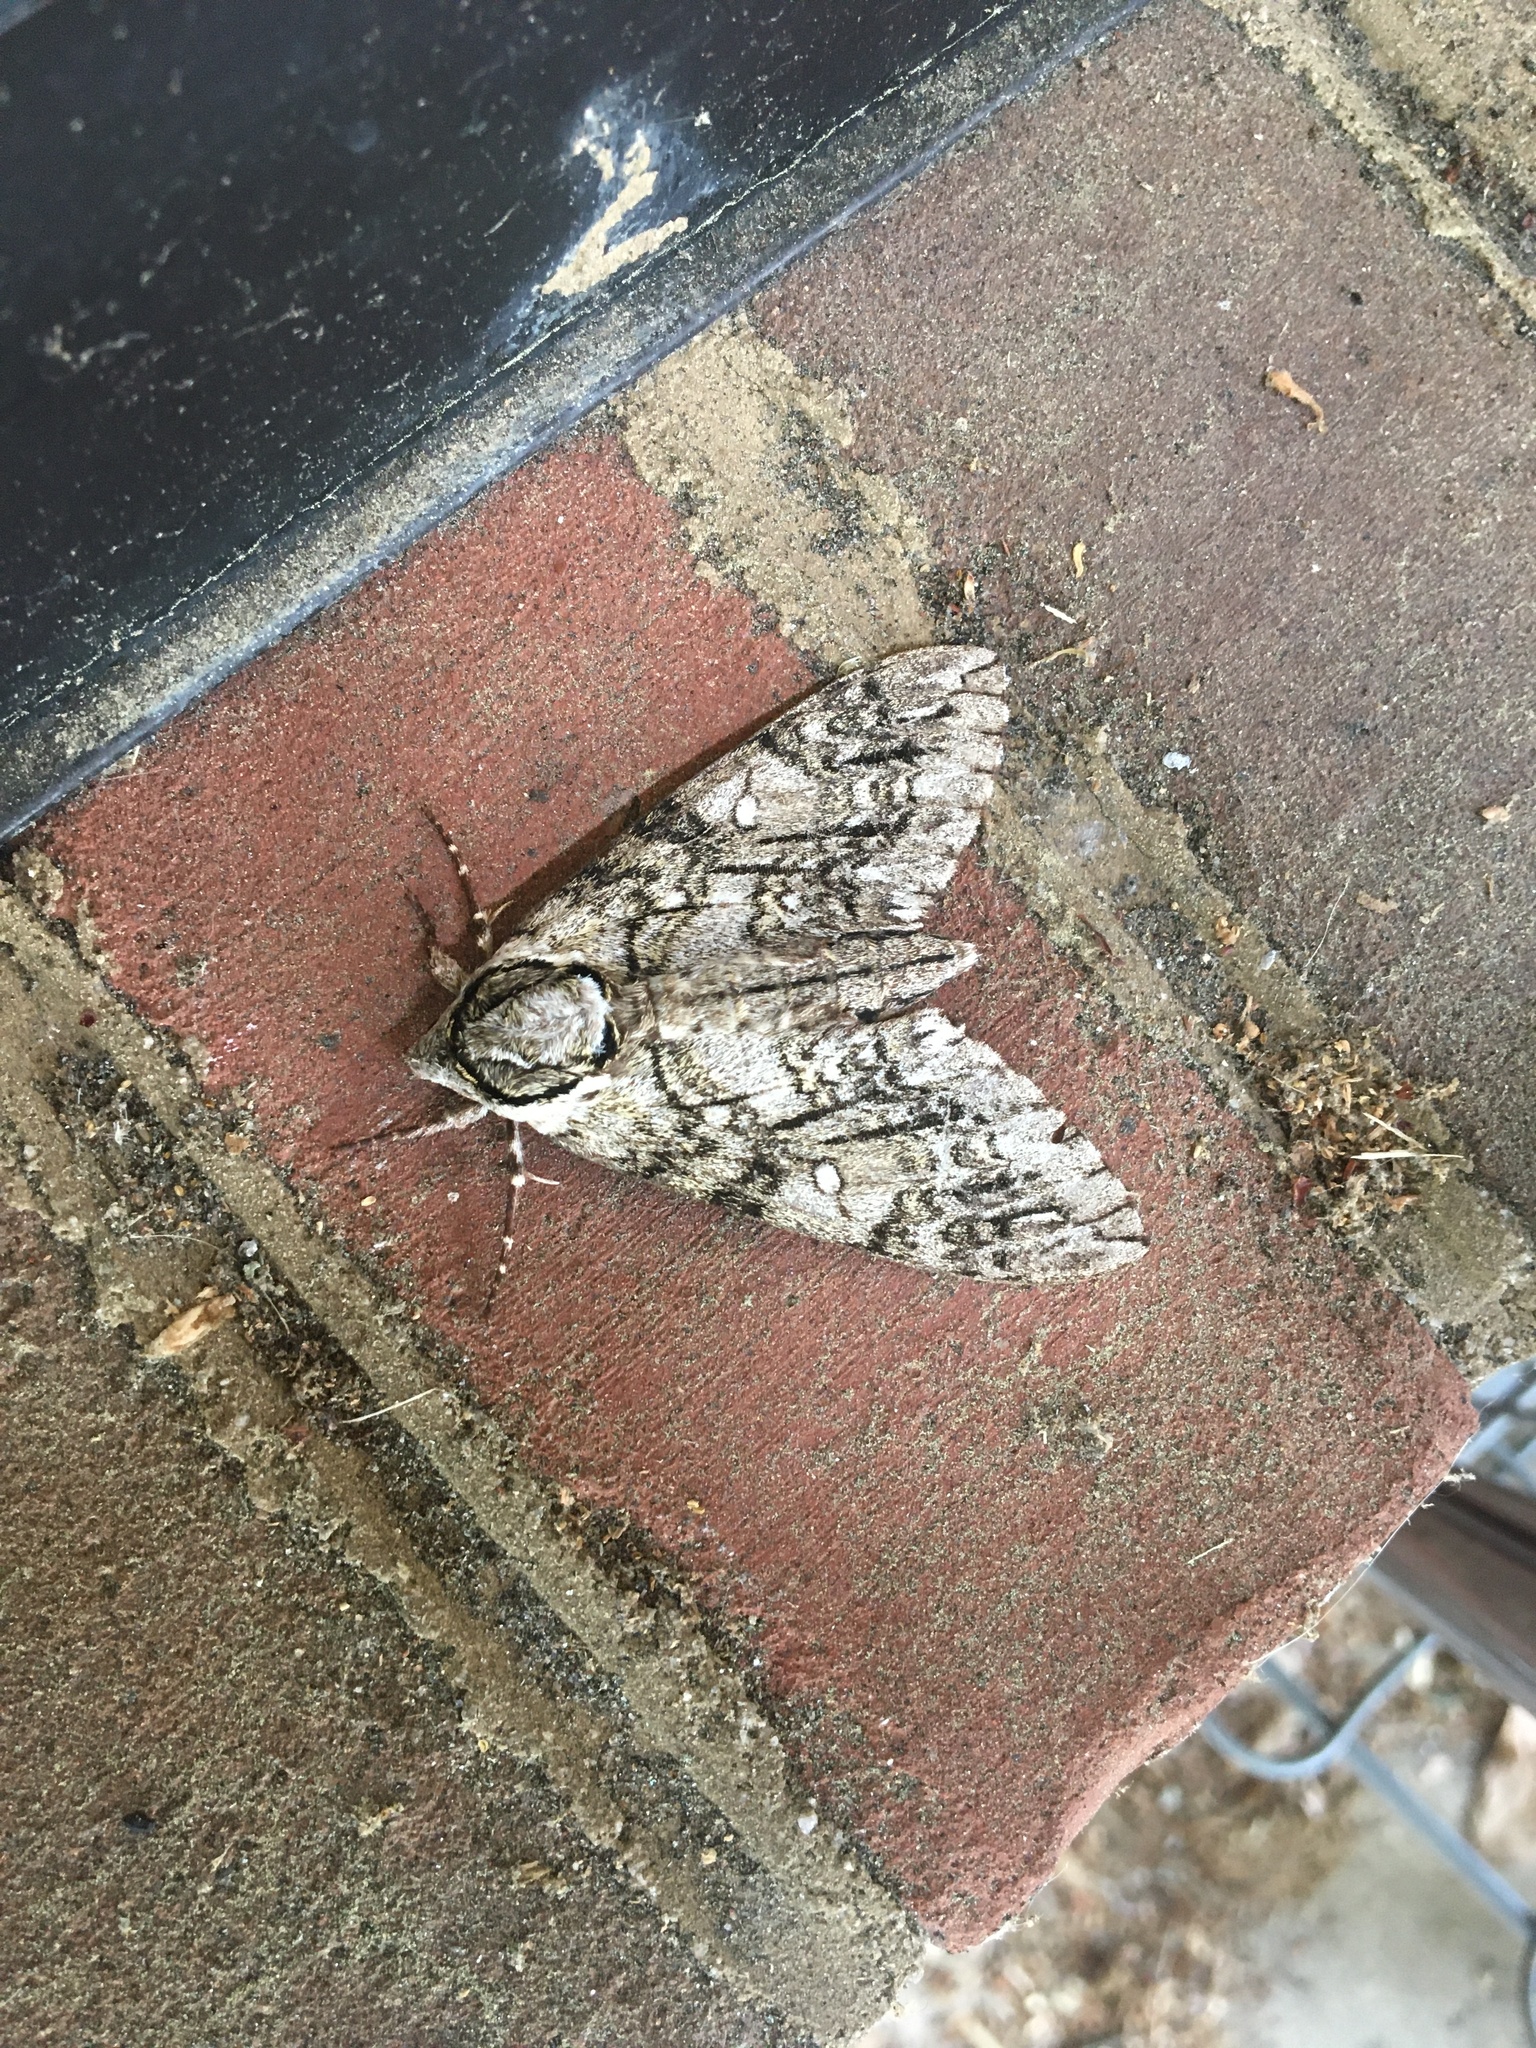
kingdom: Animalia
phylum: Arthropoda
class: Insecta
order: Lepidoptera
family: Sphingidae
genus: Ceratomia
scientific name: Ceratomia undulosa
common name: Waved sphinx
